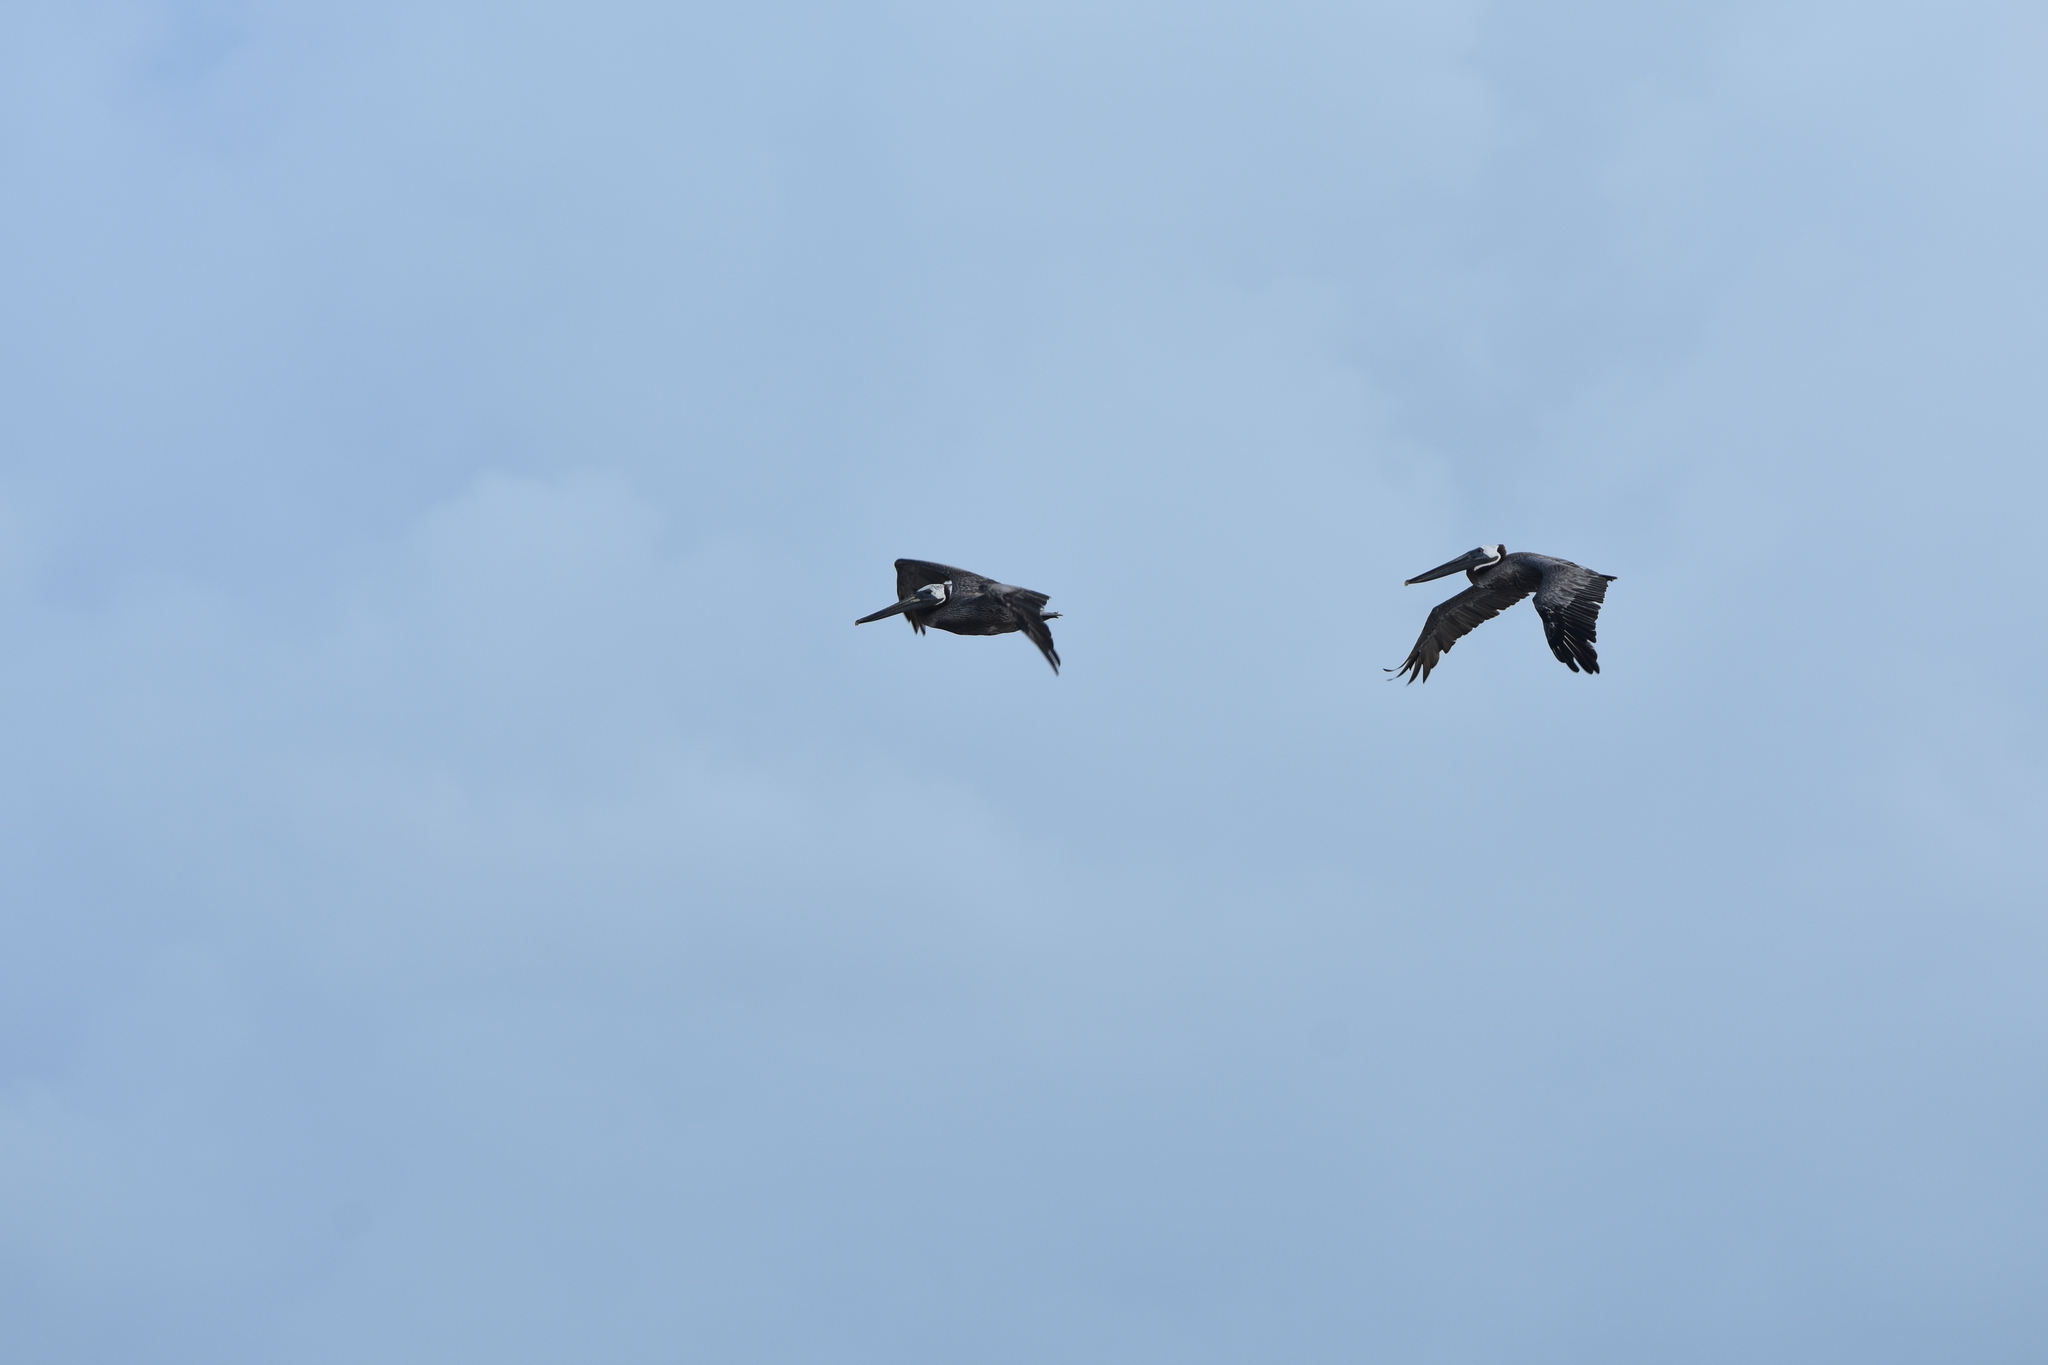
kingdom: Animalia
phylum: Chordata
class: Aves
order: Pelecaniformes
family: Pelecanidae
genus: Pelecanus
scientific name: Pelecanus occidentalis
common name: Brown pelican
